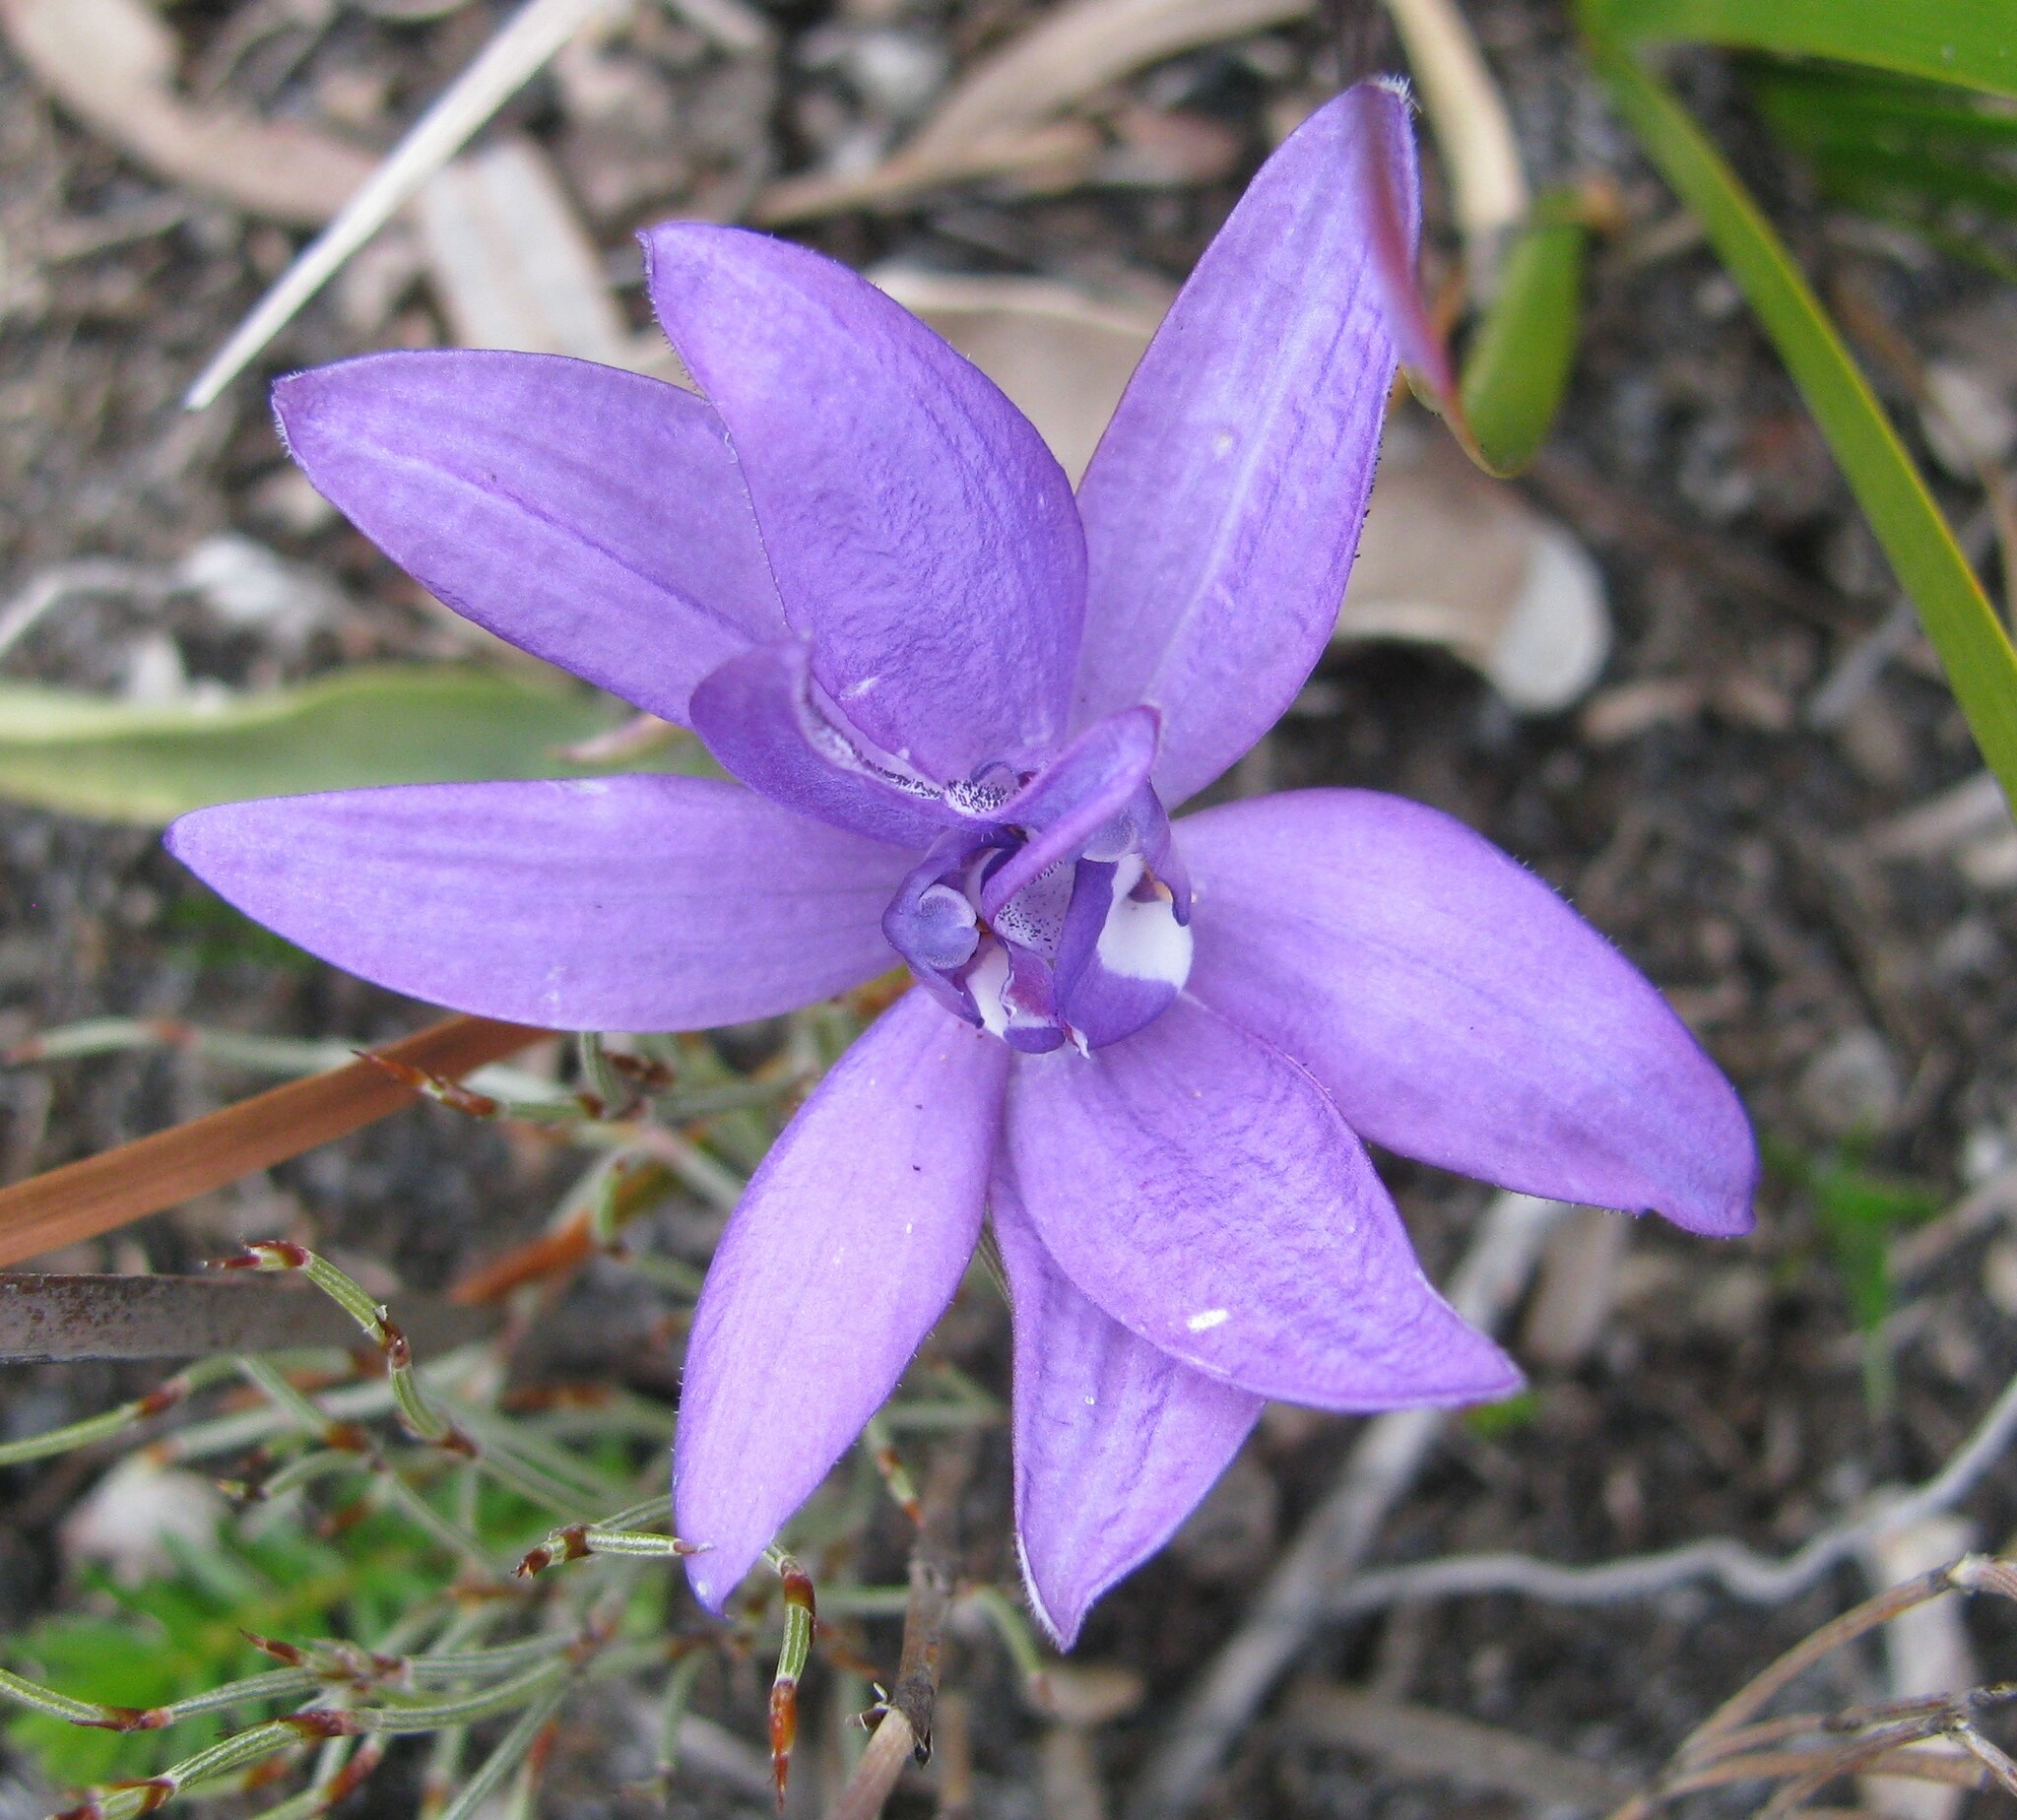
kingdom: Plantae
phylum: Tracheophyta
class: Liliopsida
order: Asparagales
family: Orchidaceae
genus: Caladenia
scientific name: Caladenia major
